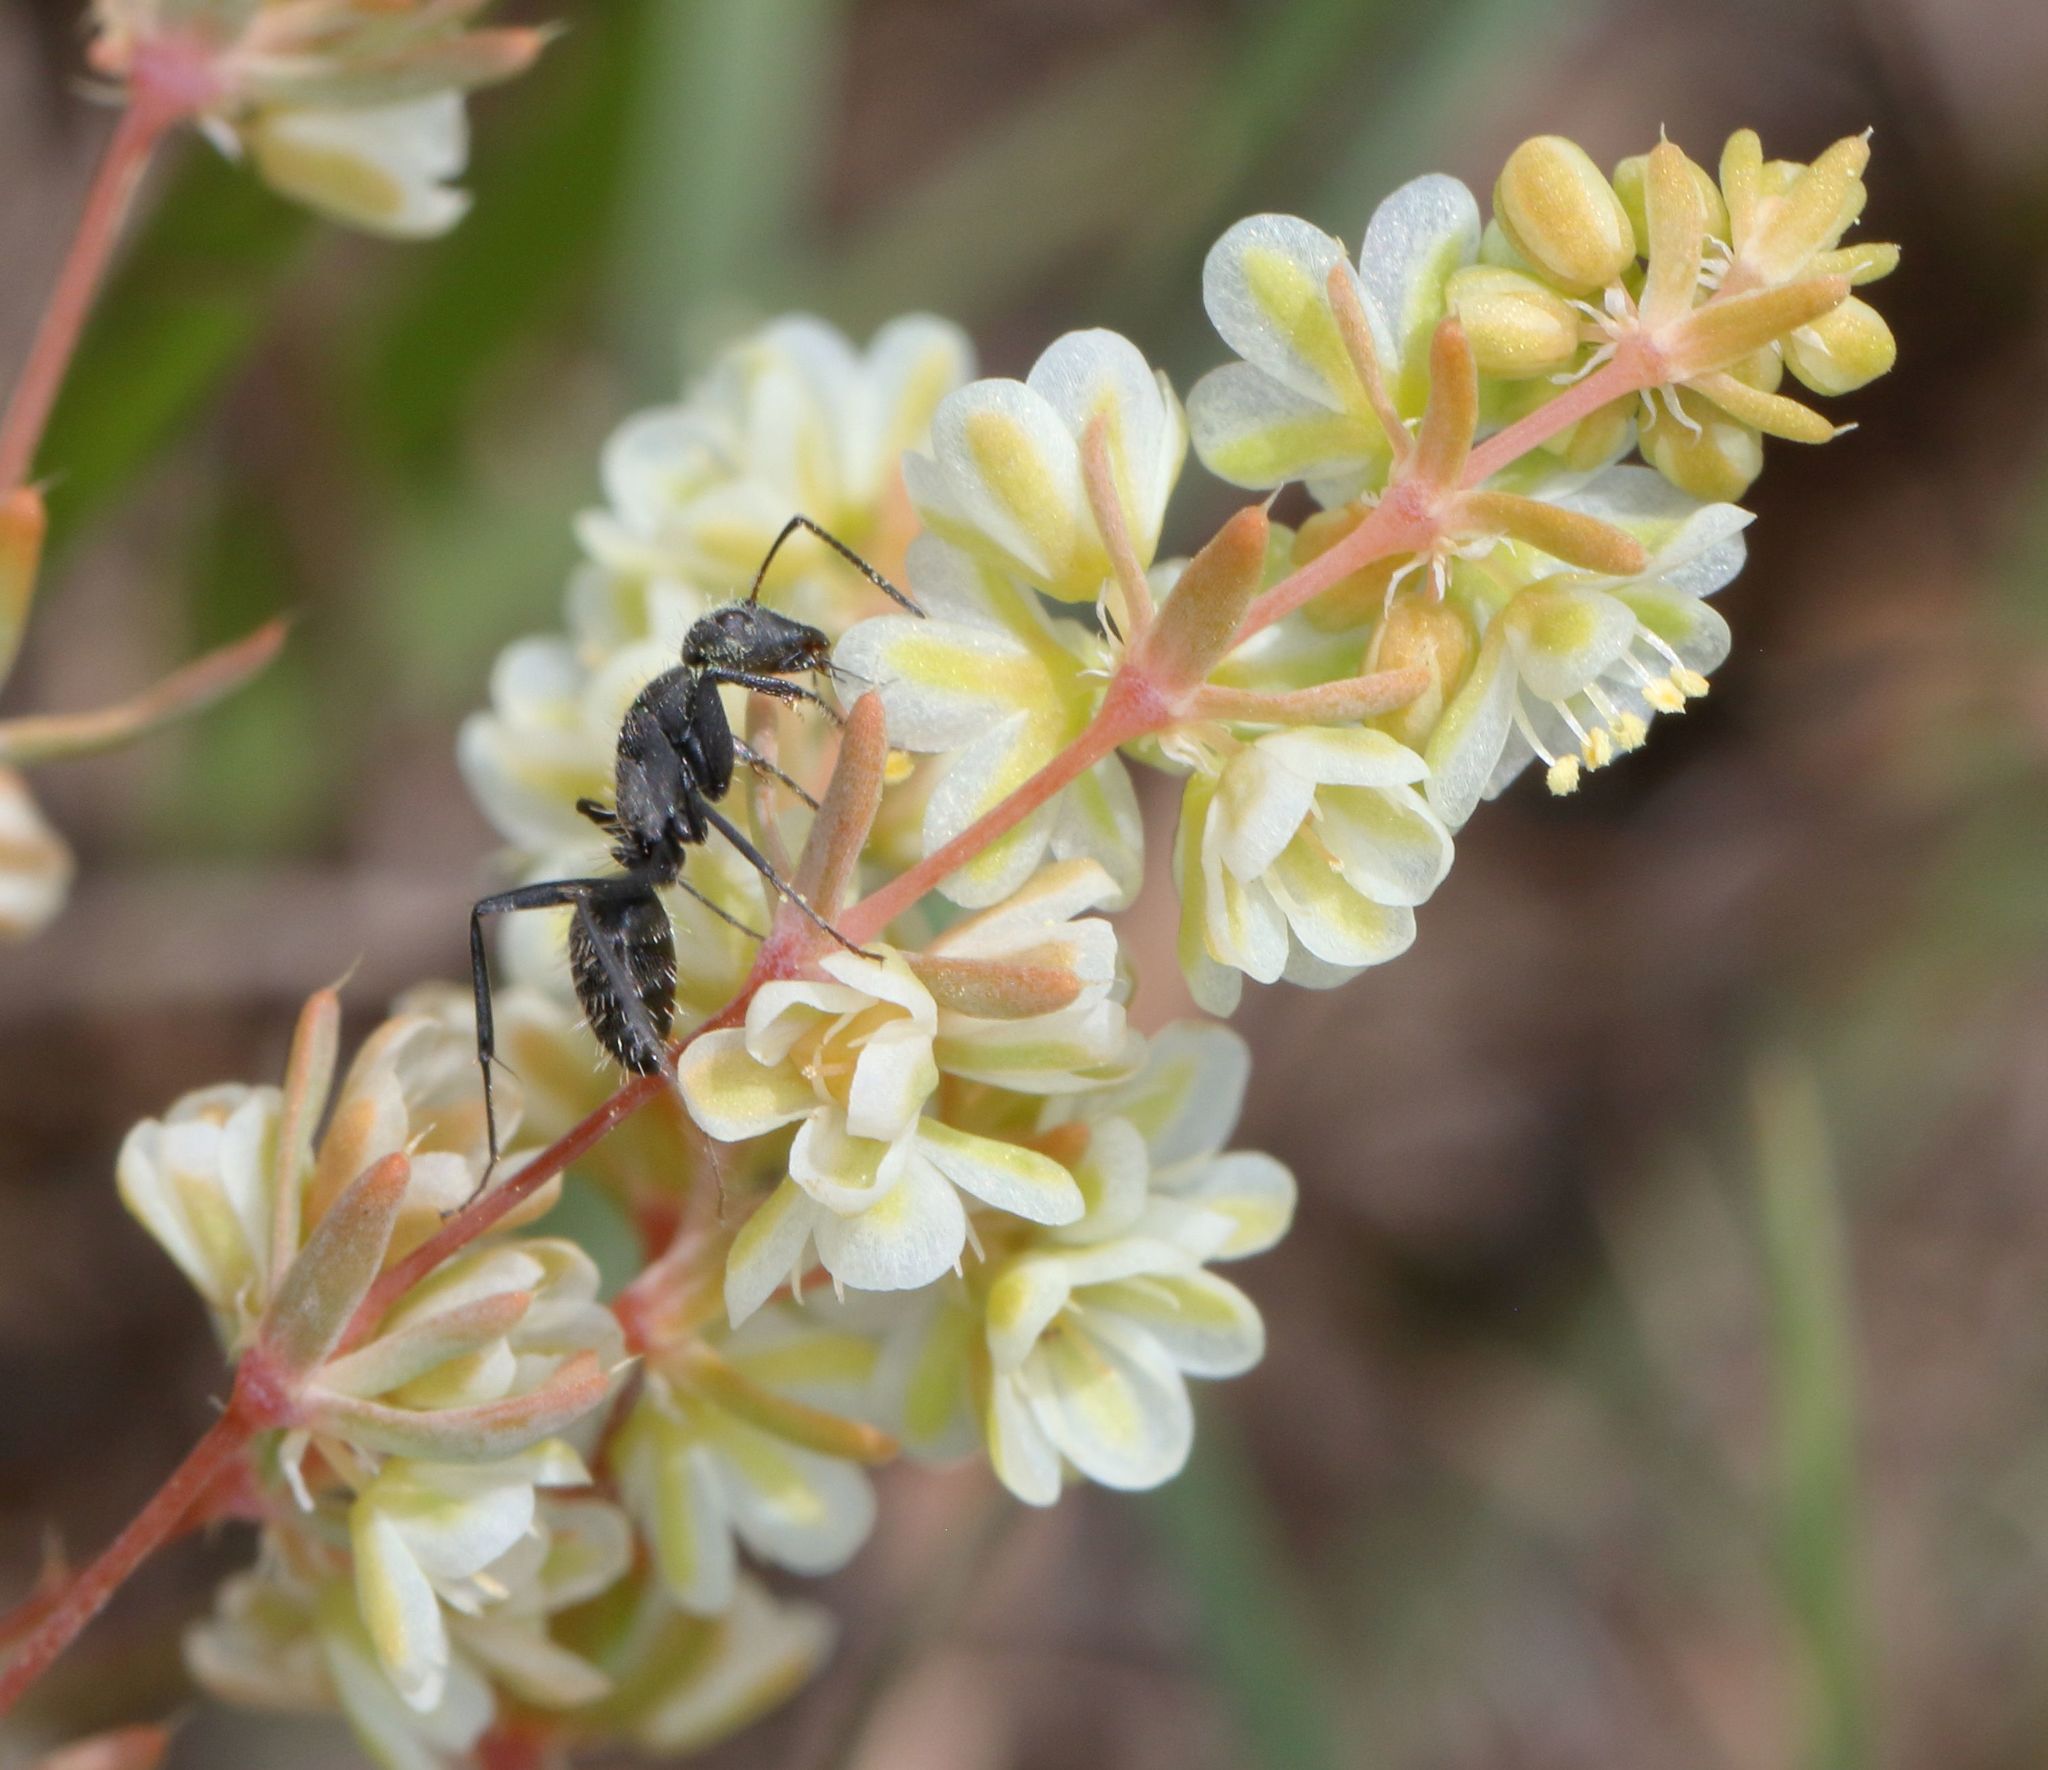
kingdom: Animalia
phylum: Arthropoda
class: Insecta
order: Hymenoptera
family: Formicidae
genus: Camponotus
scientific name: Camponotus niveosetosus
